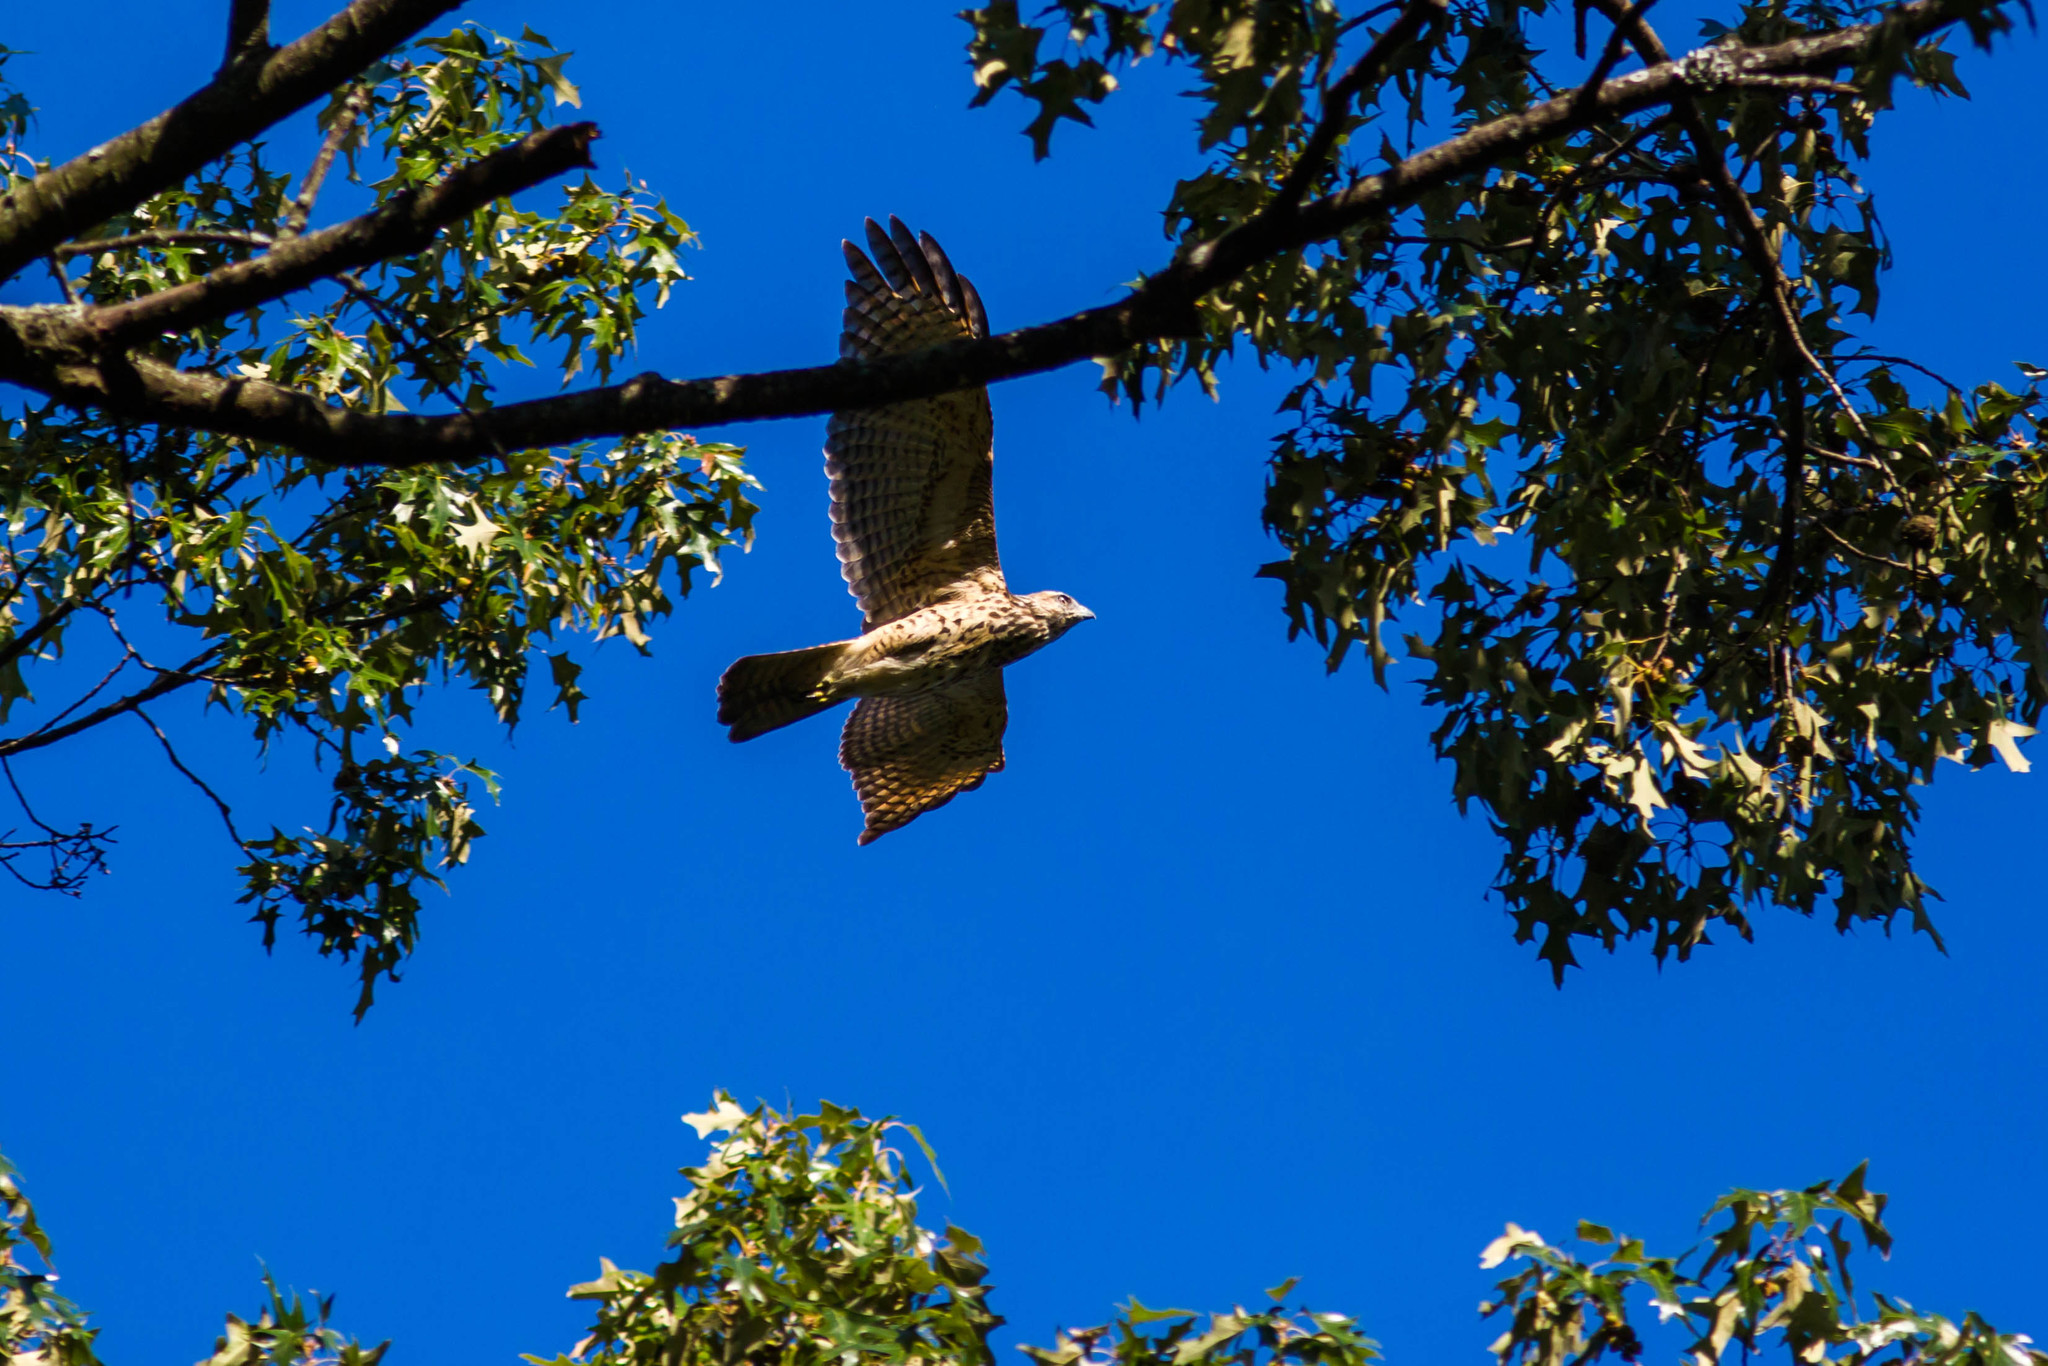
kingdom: Animalia
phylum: Chordata
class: Aves
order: Accipitriformes
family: Accipitridae
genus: Buteo
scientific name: Buteo lineatus
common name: Red-shouldered hawk
